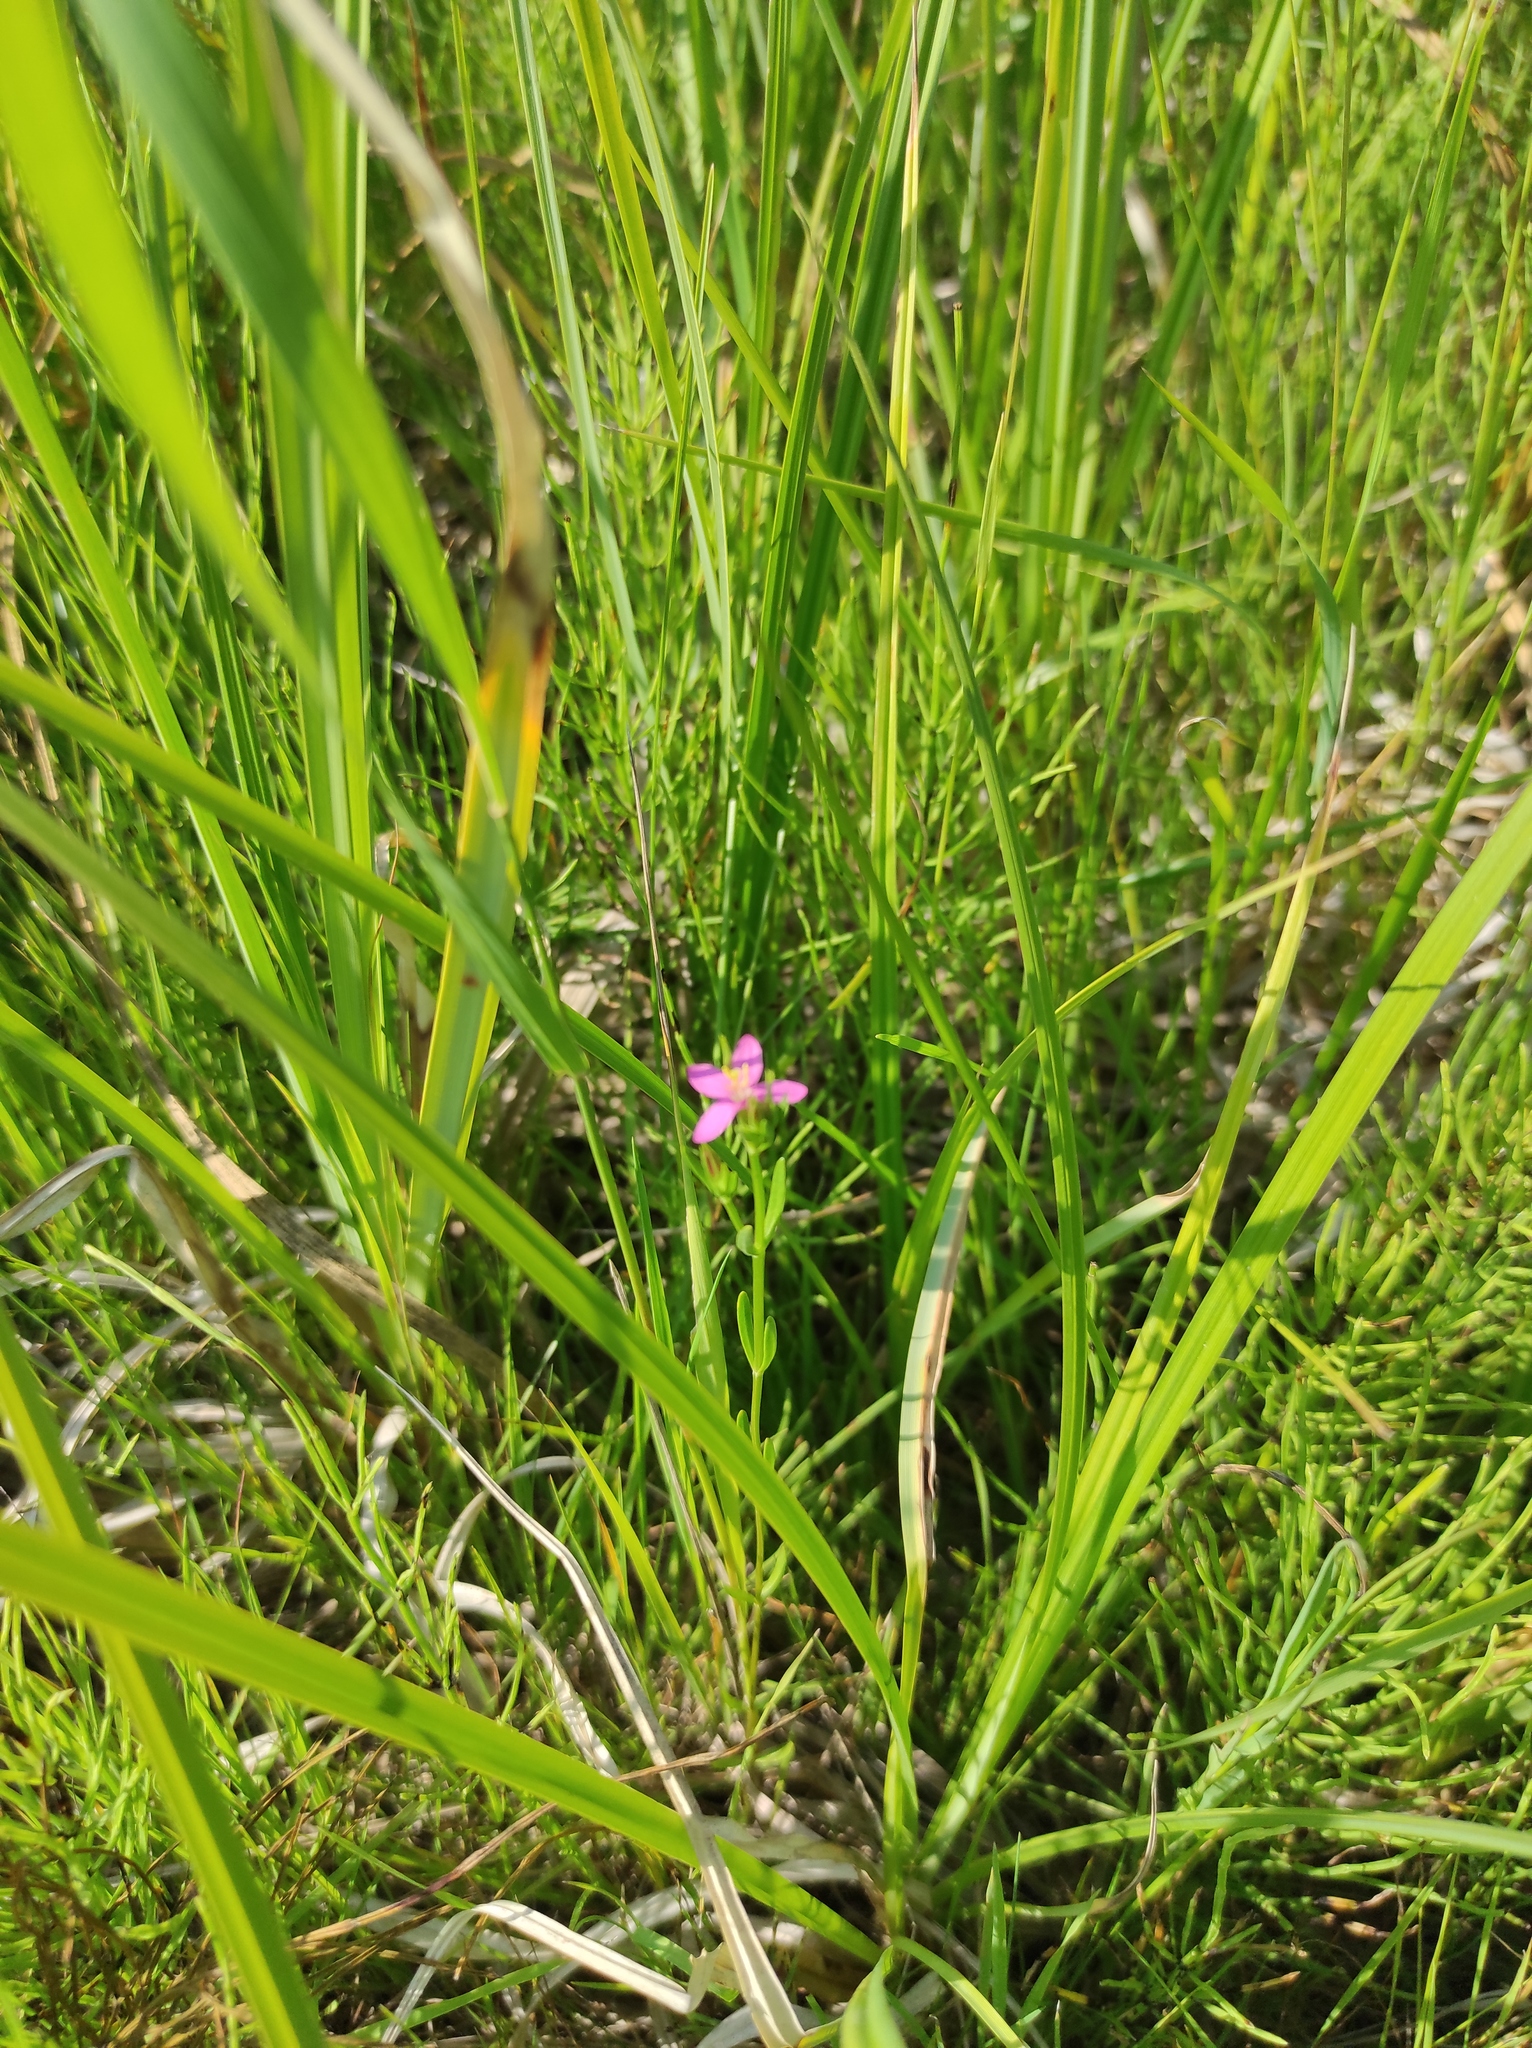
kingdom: Plantae
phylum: Tracheophyta
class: Magnoliopsida
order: Gentianales
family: Gentianaceae
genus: Centaurium
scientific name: Centaurium pulchellum
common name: Lesser centaury
